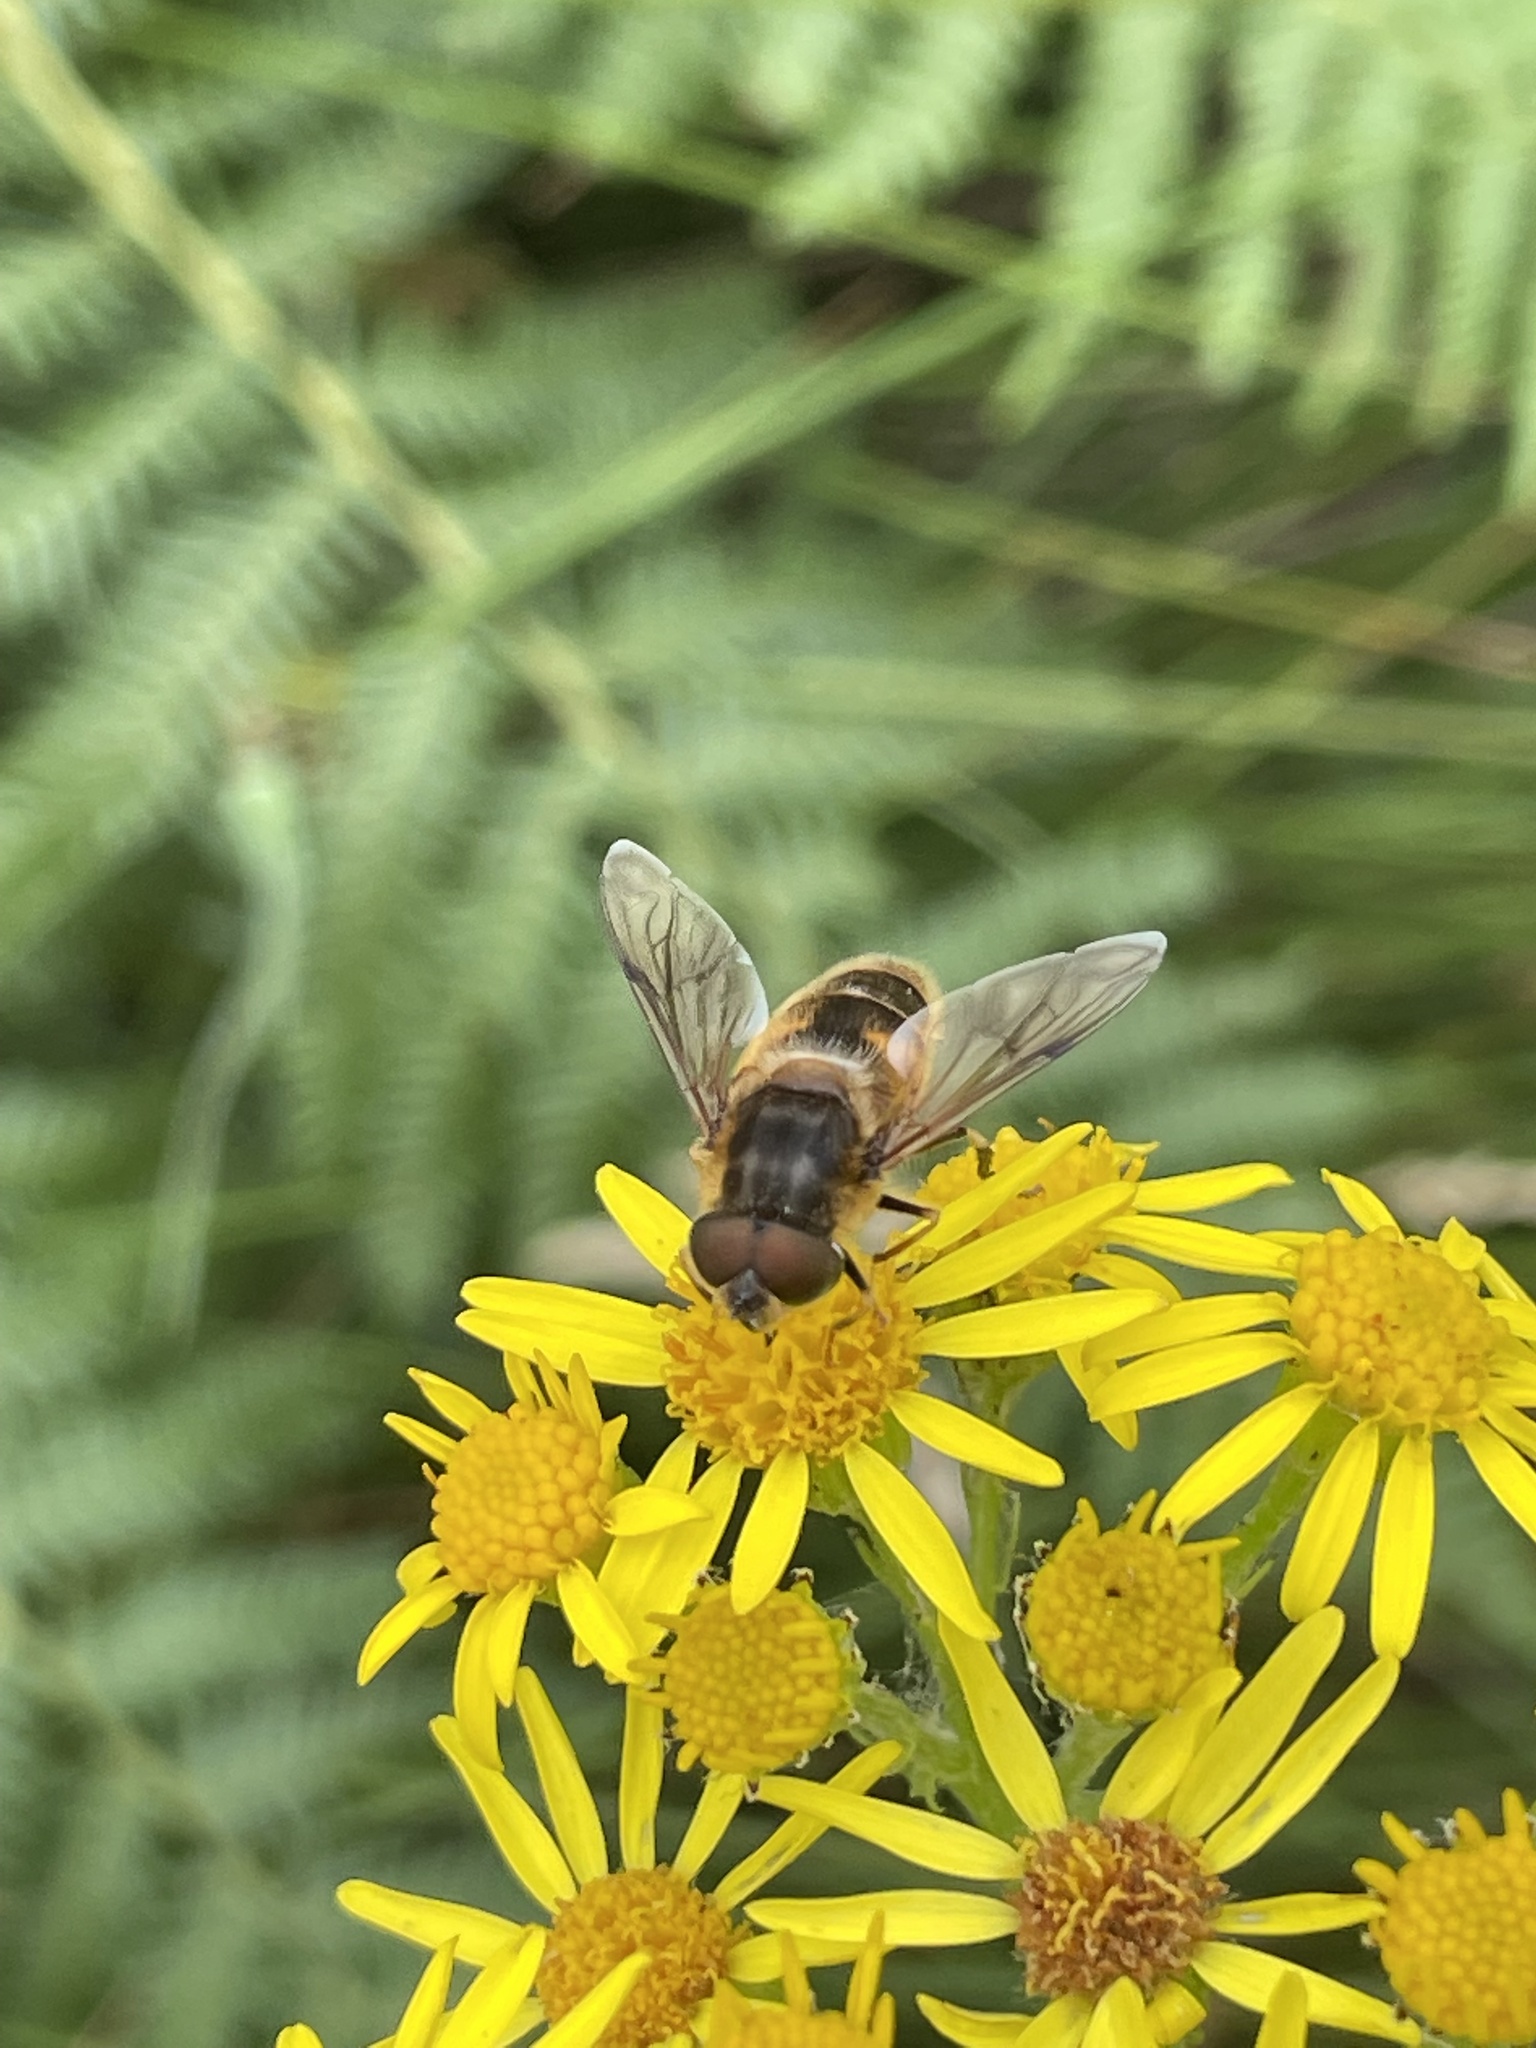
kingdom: Animalia
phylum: Arthropoda
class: Insecta
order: Diptera
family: Syrphidae
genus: Eristalis
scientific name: Eristalis pertinax
